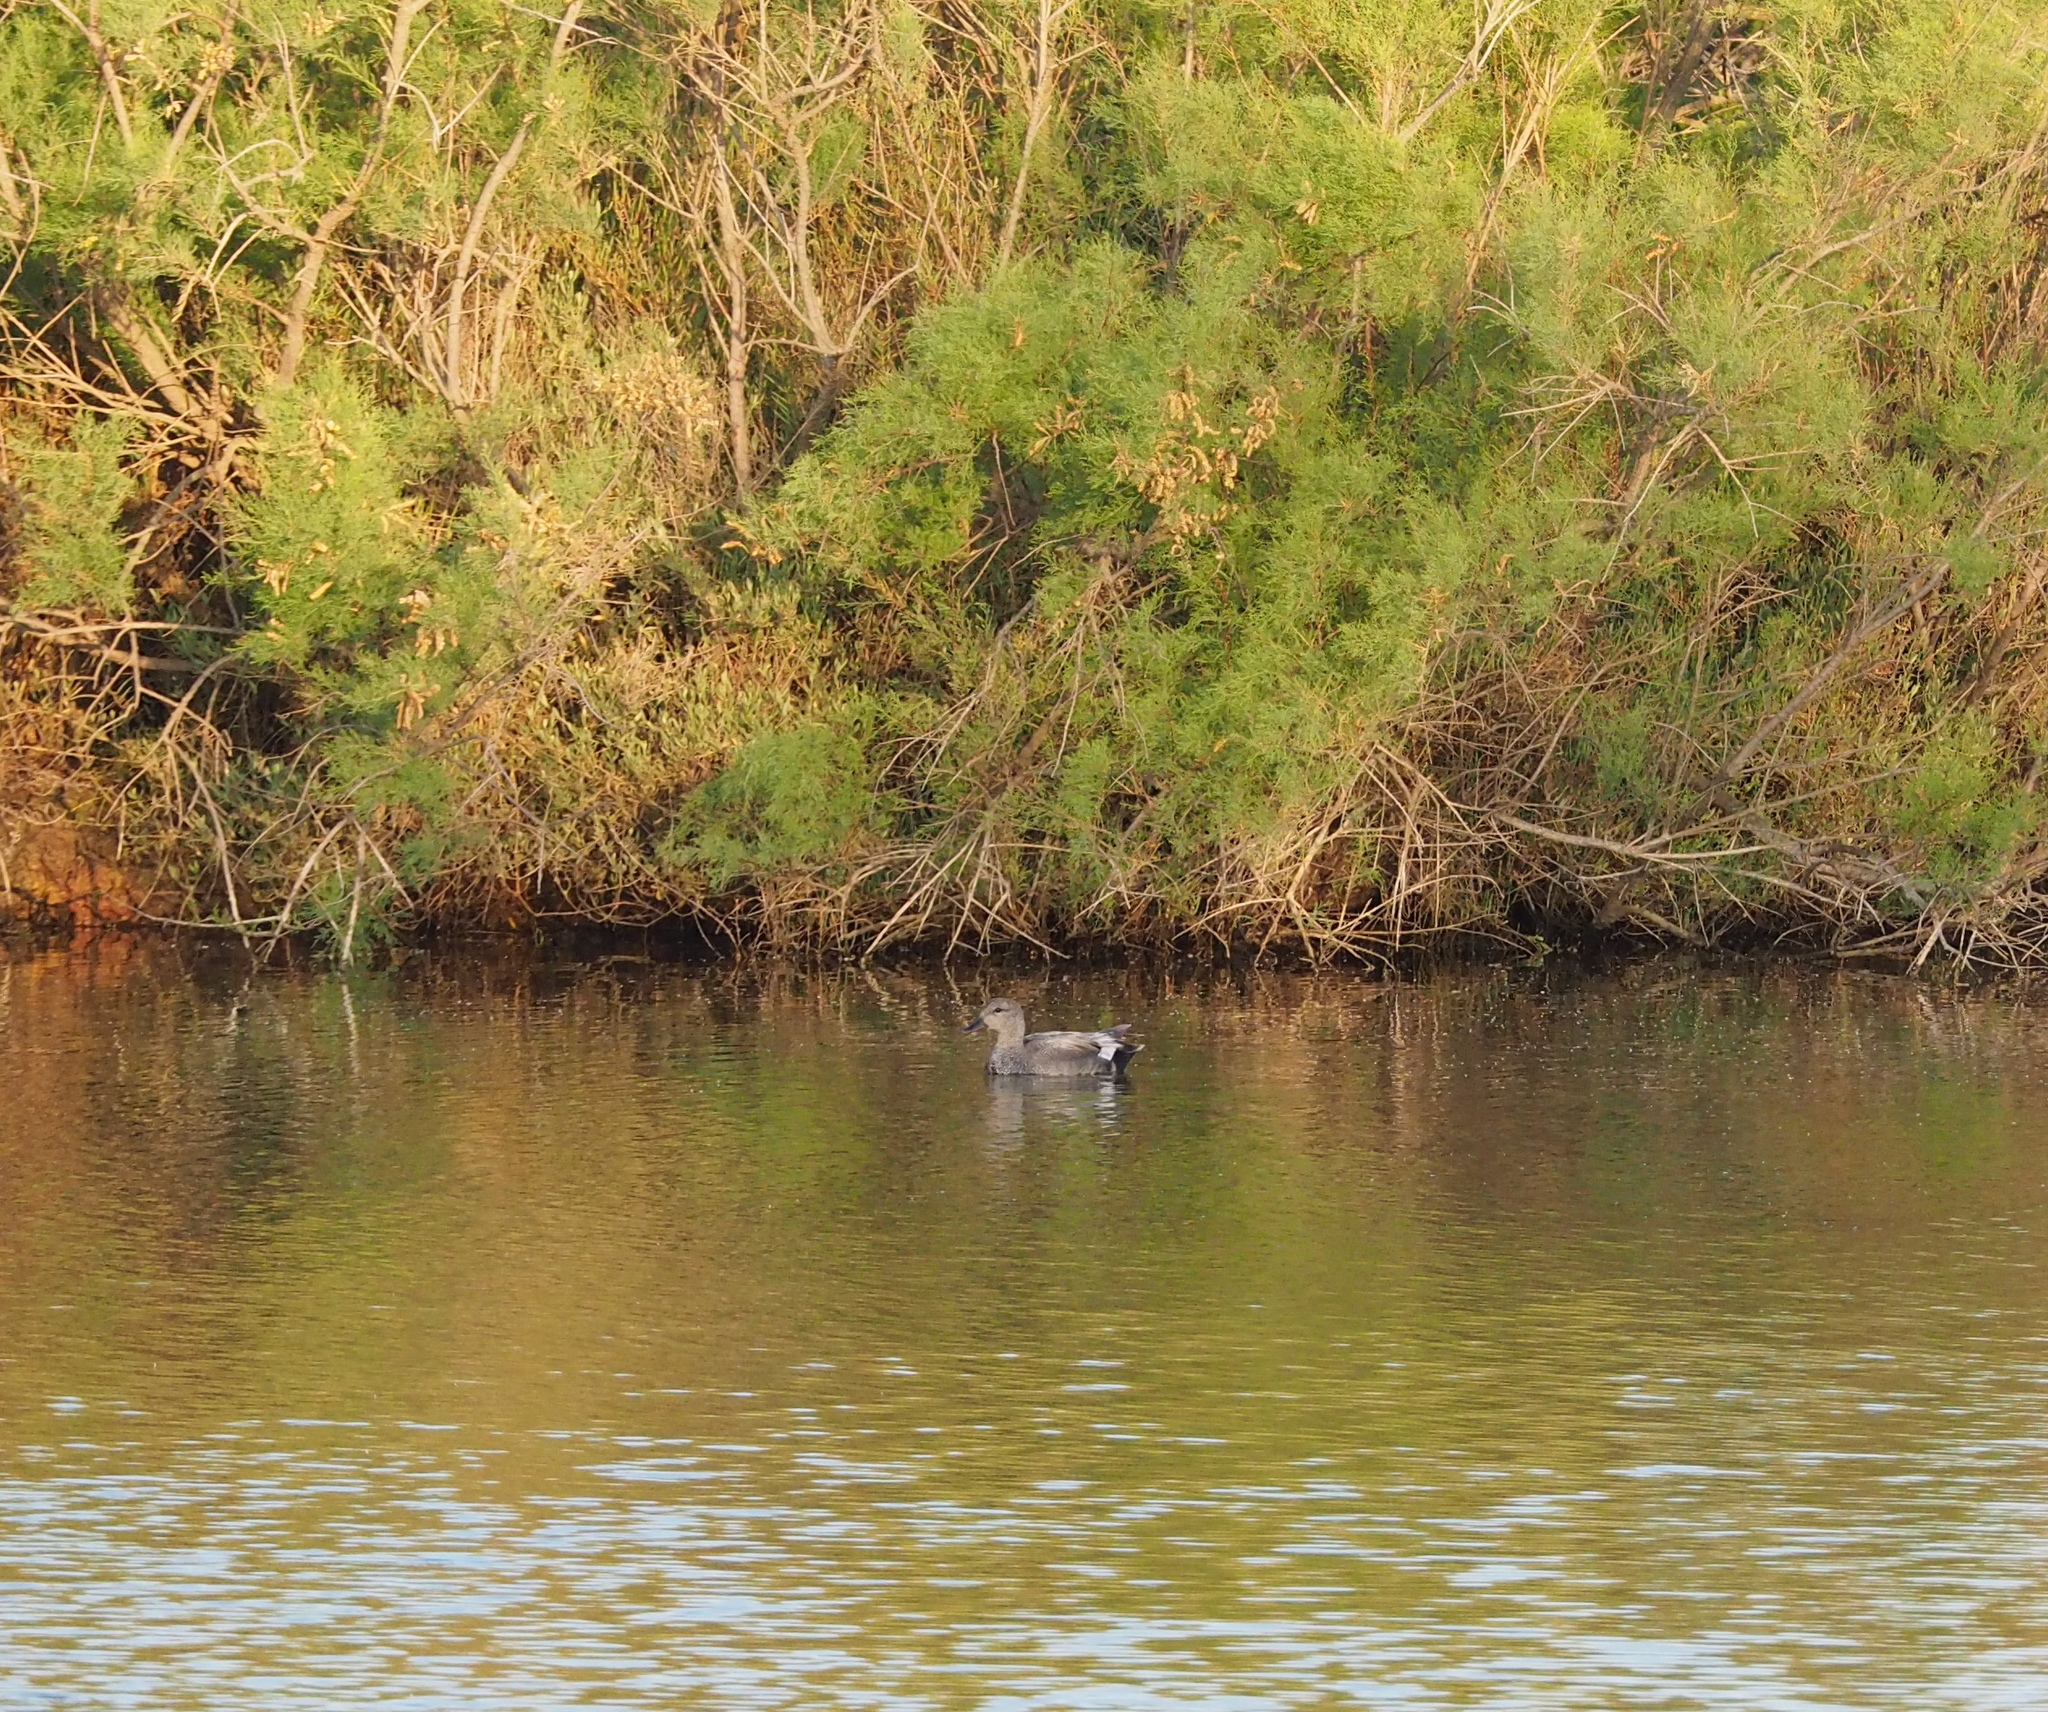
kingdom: Animalia
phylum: Chordata
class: Aves
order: Anseriformes
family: Anatidae
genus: Mareca
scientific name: Mareca strepera
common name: Gadwall
